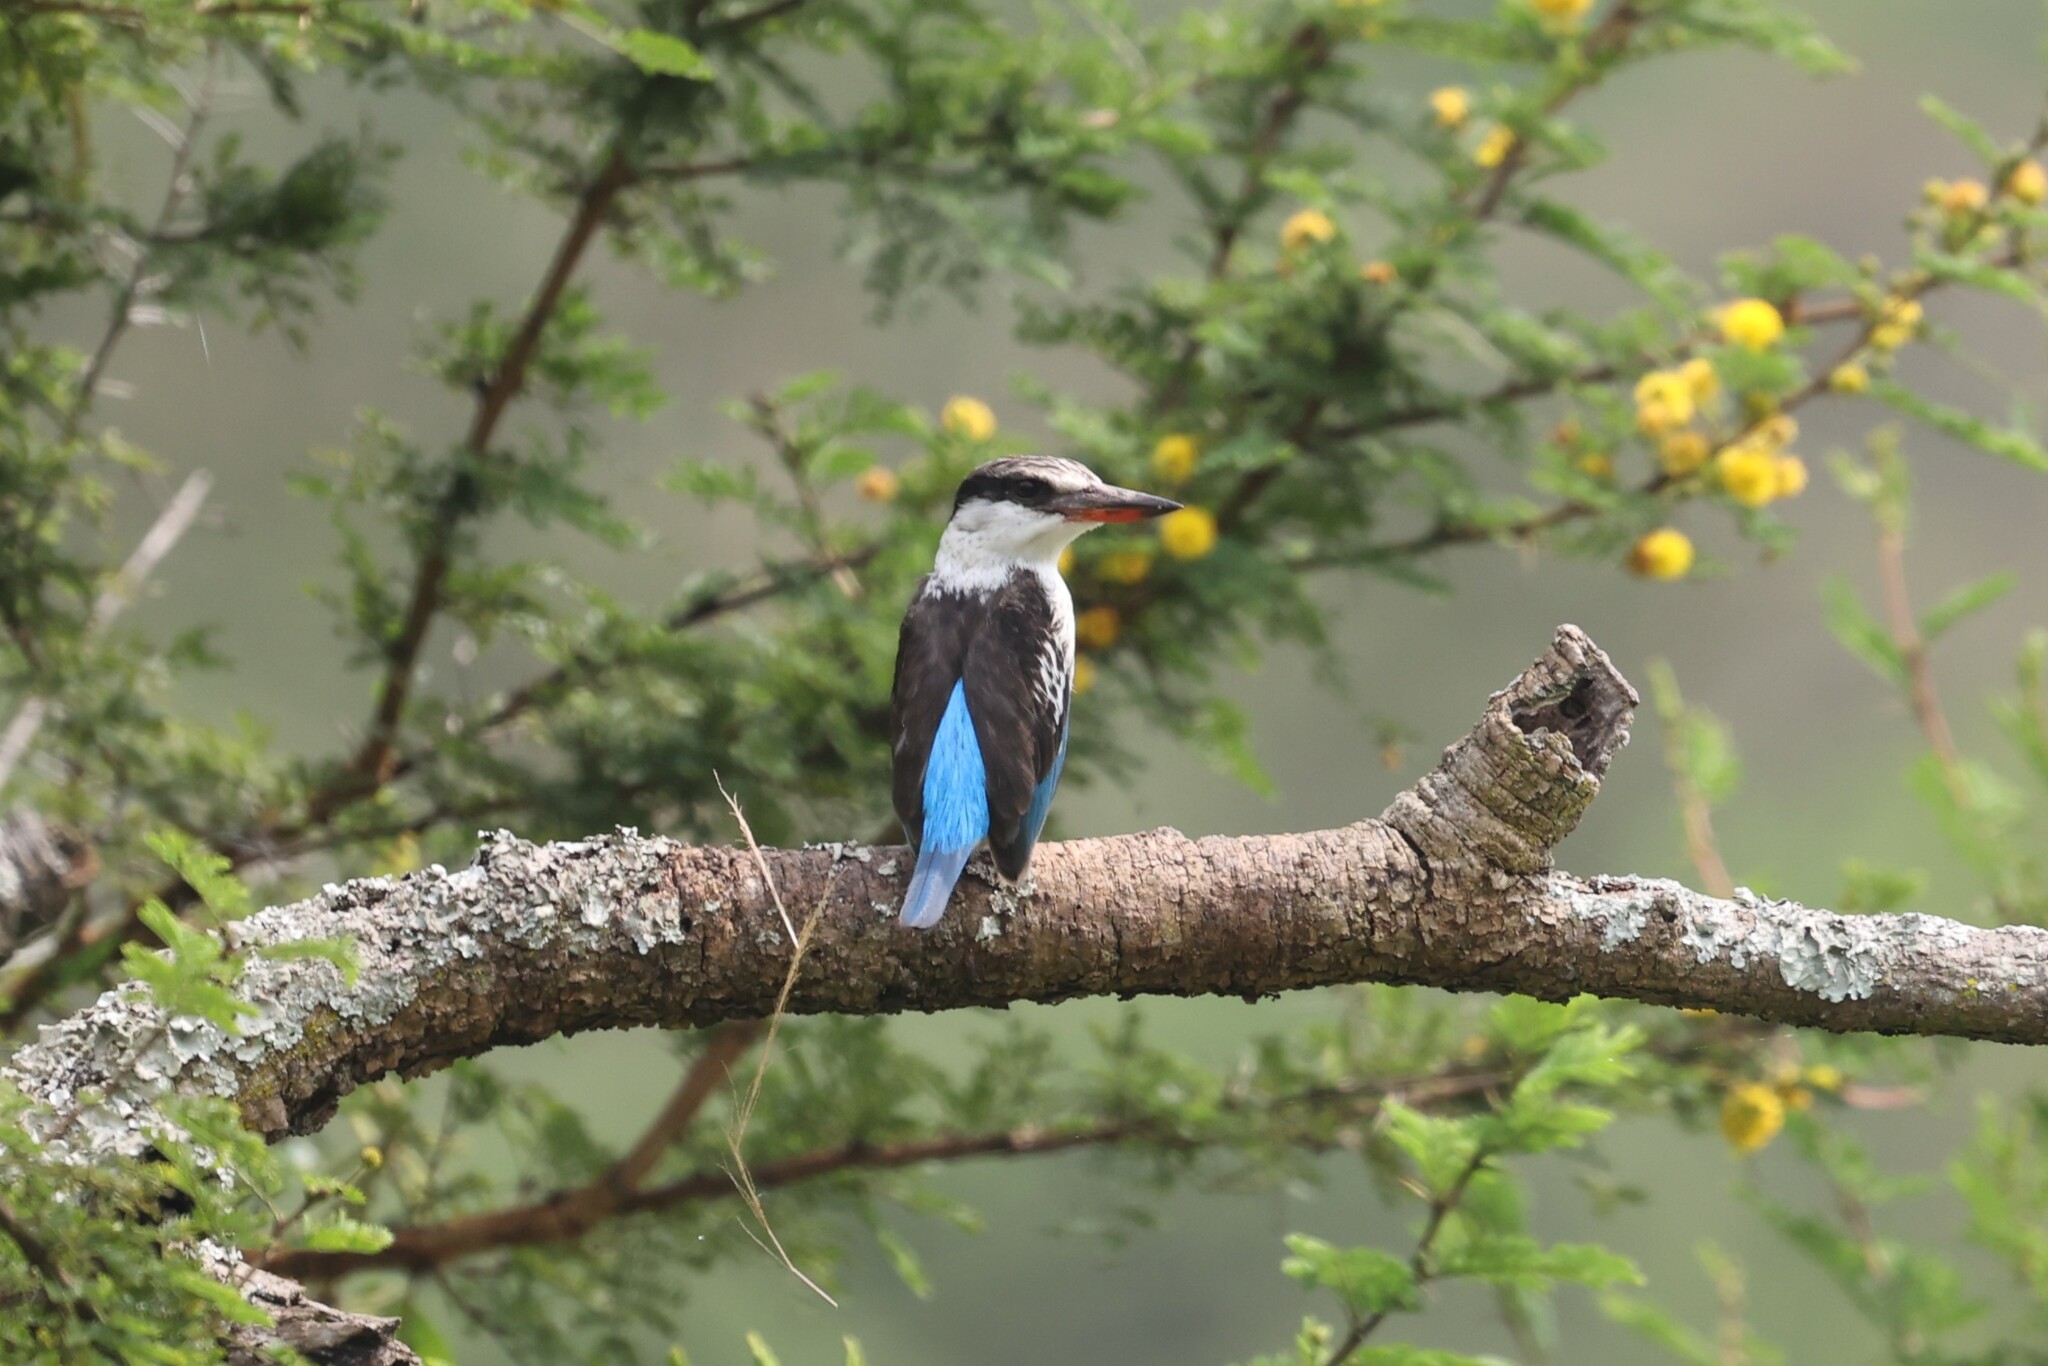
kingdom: Animalia
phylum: Chordata
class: Aves
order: Coraciiformes
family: Alcedinidae
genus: Halcyon
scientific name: Halcyon chelicuti
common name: Striped kingfisher
